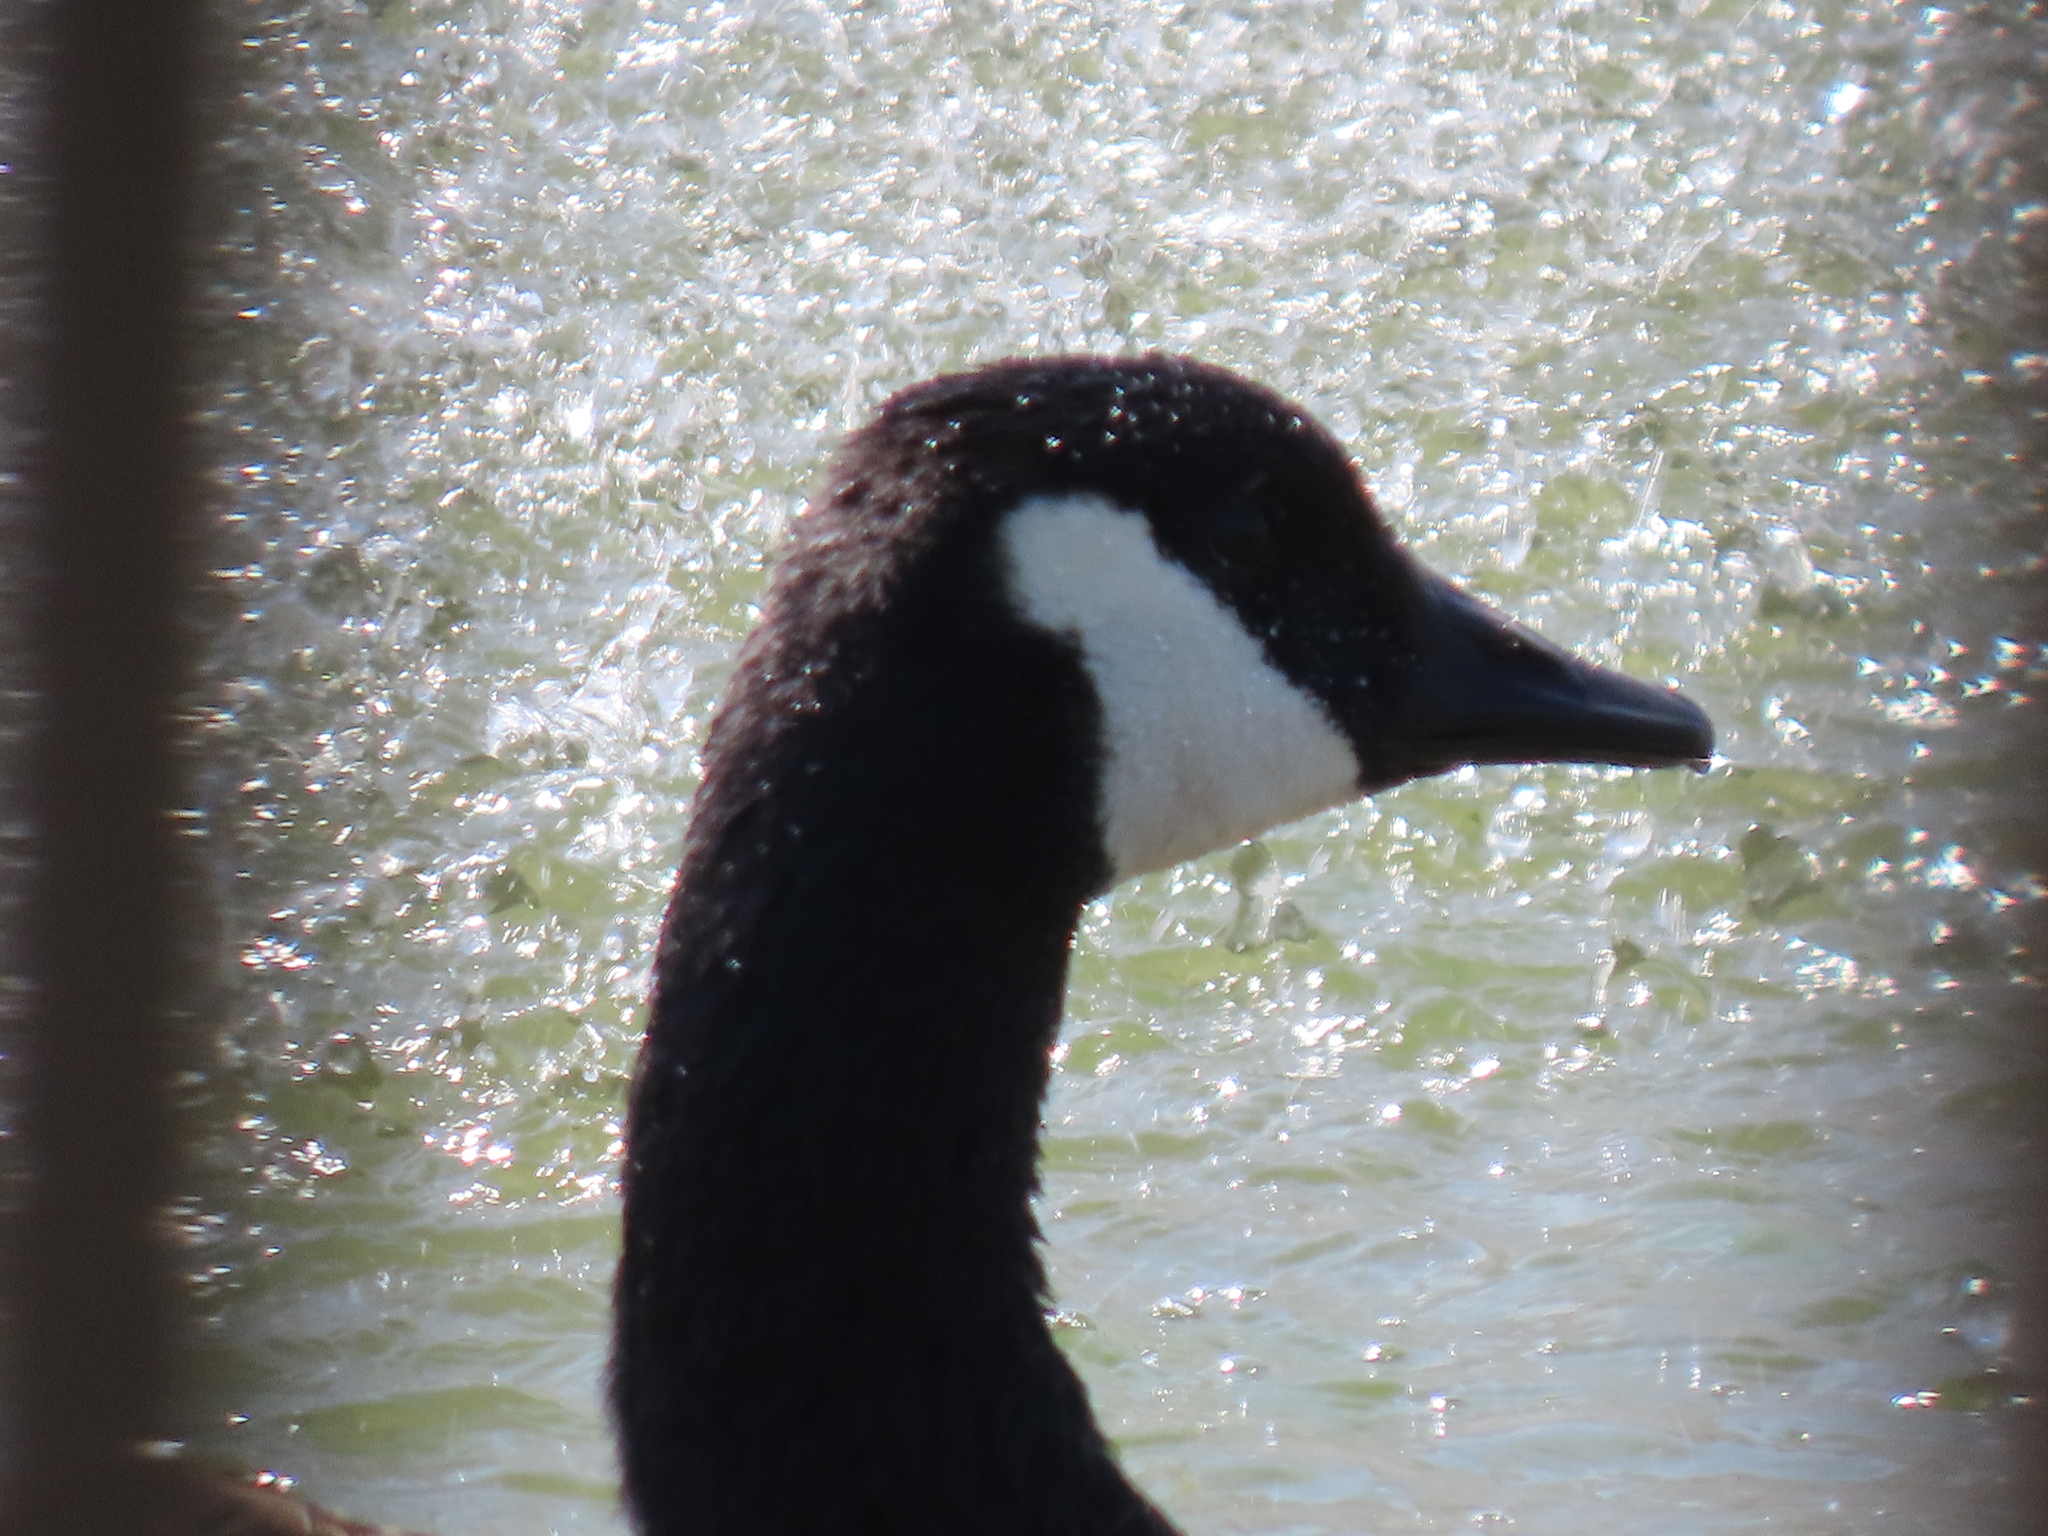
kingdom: Animalia
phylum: Chordata
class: Aves
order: Anseriformes
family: Anatidae
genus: Branta
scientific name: Branta canadensis
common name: Canada goose
